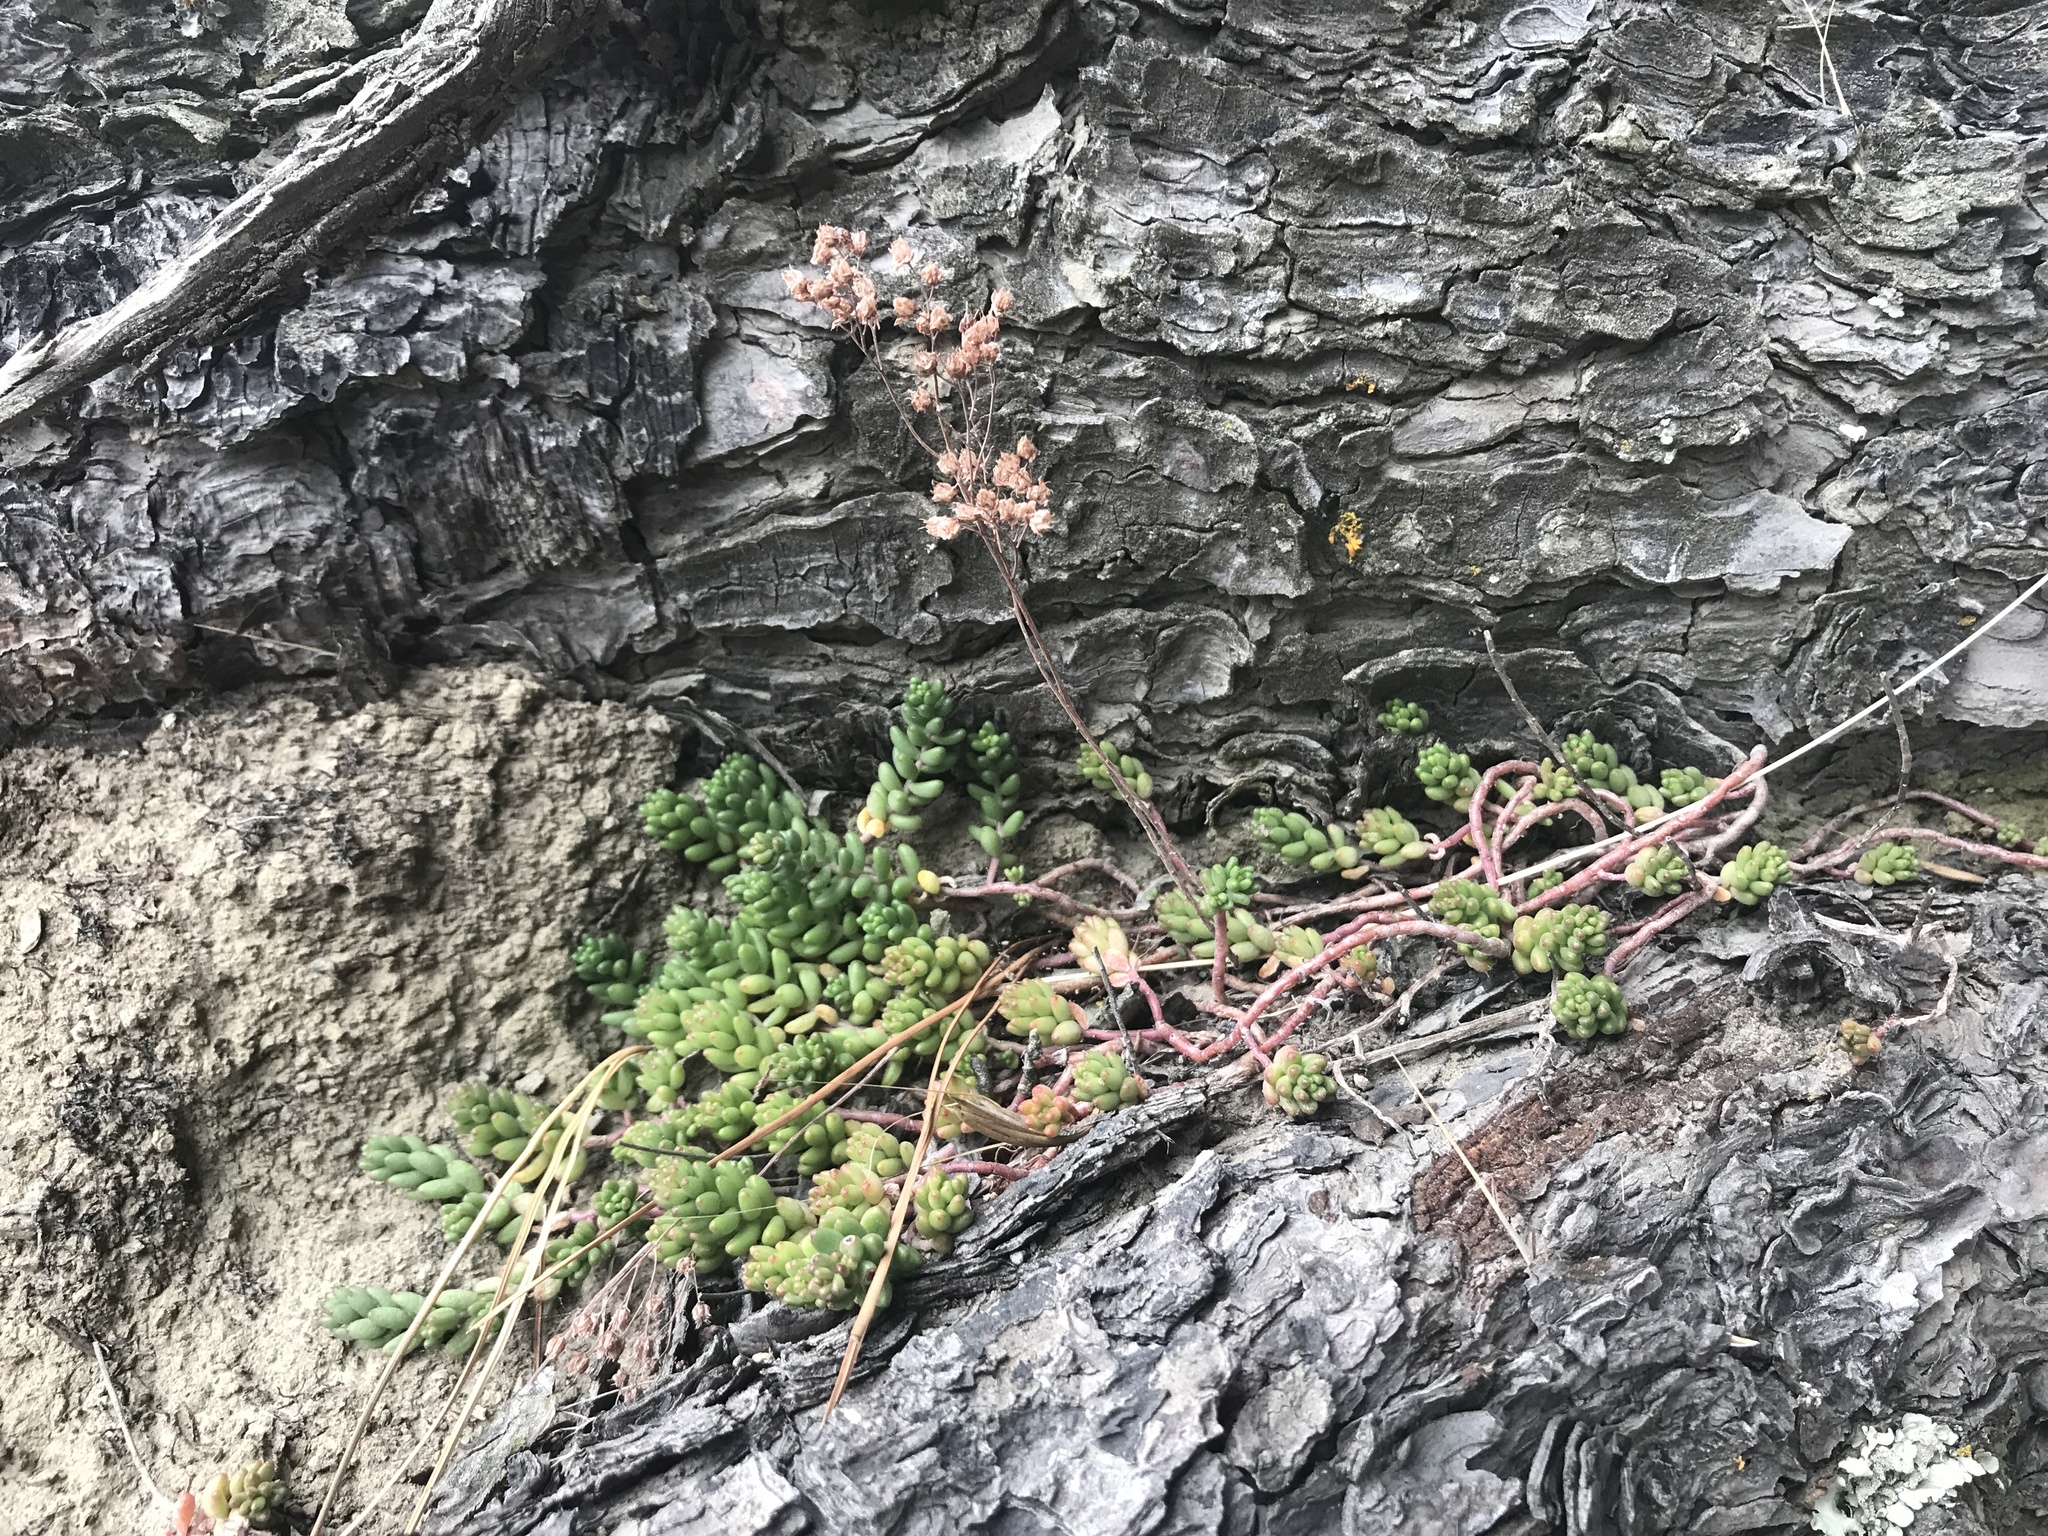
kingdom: Plantae
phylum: Tracheophyta
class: Magnoliopsida
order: Saxifragales
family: Crassulaceae
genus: Sedum
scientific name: Sedum album
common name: White stonecrop
